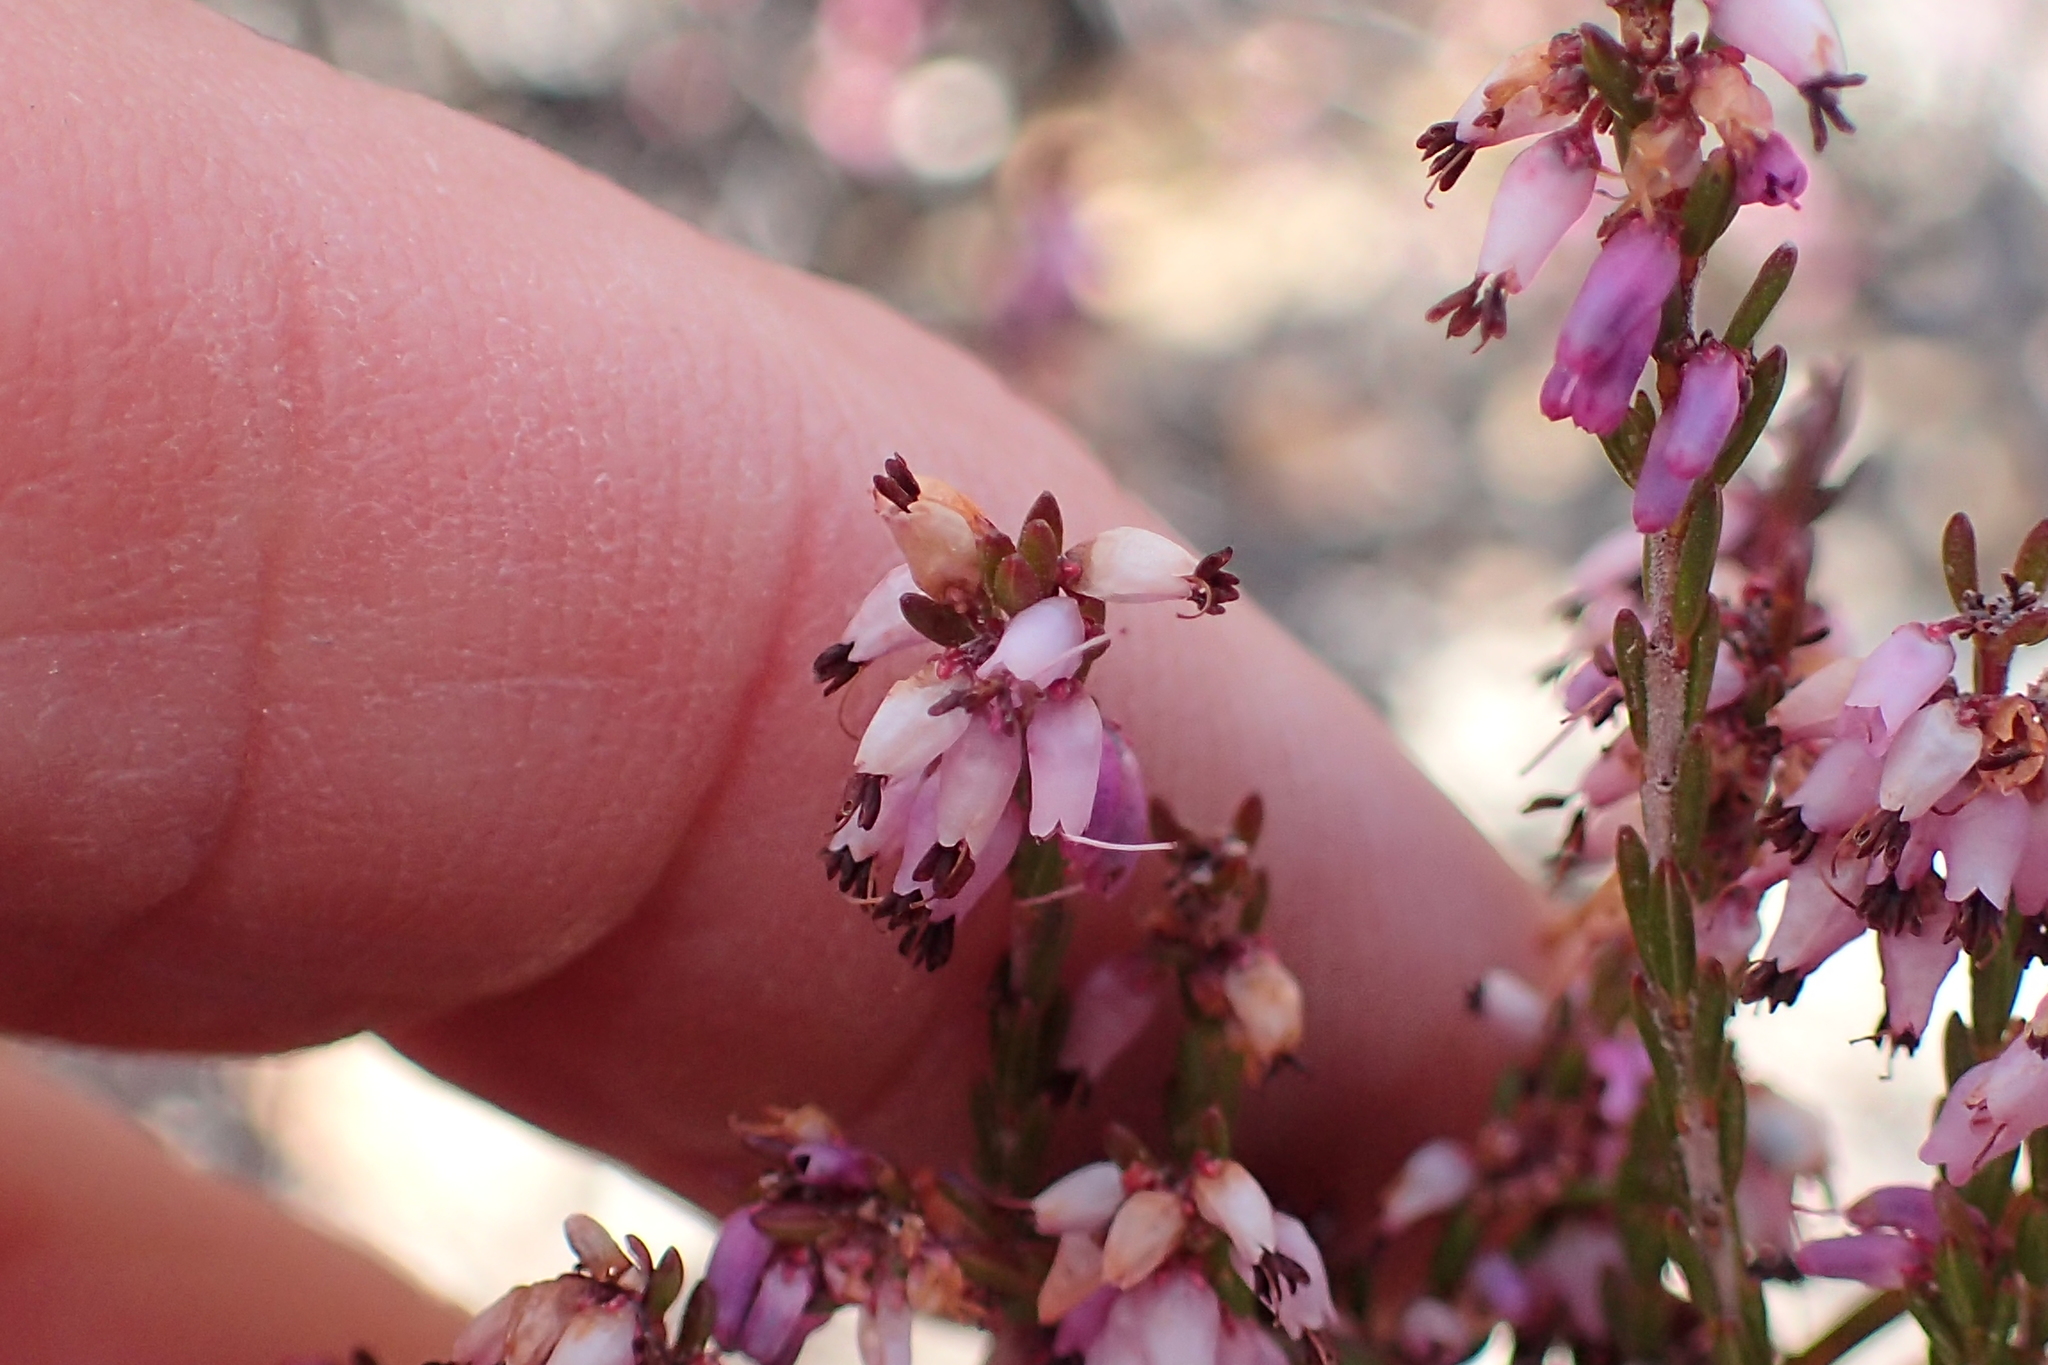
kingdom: Plantae
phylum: Tracheophyta
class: Magnoliopsida
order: Ericales
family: Ericaceae
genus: Erica
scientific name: Erica rosacea
